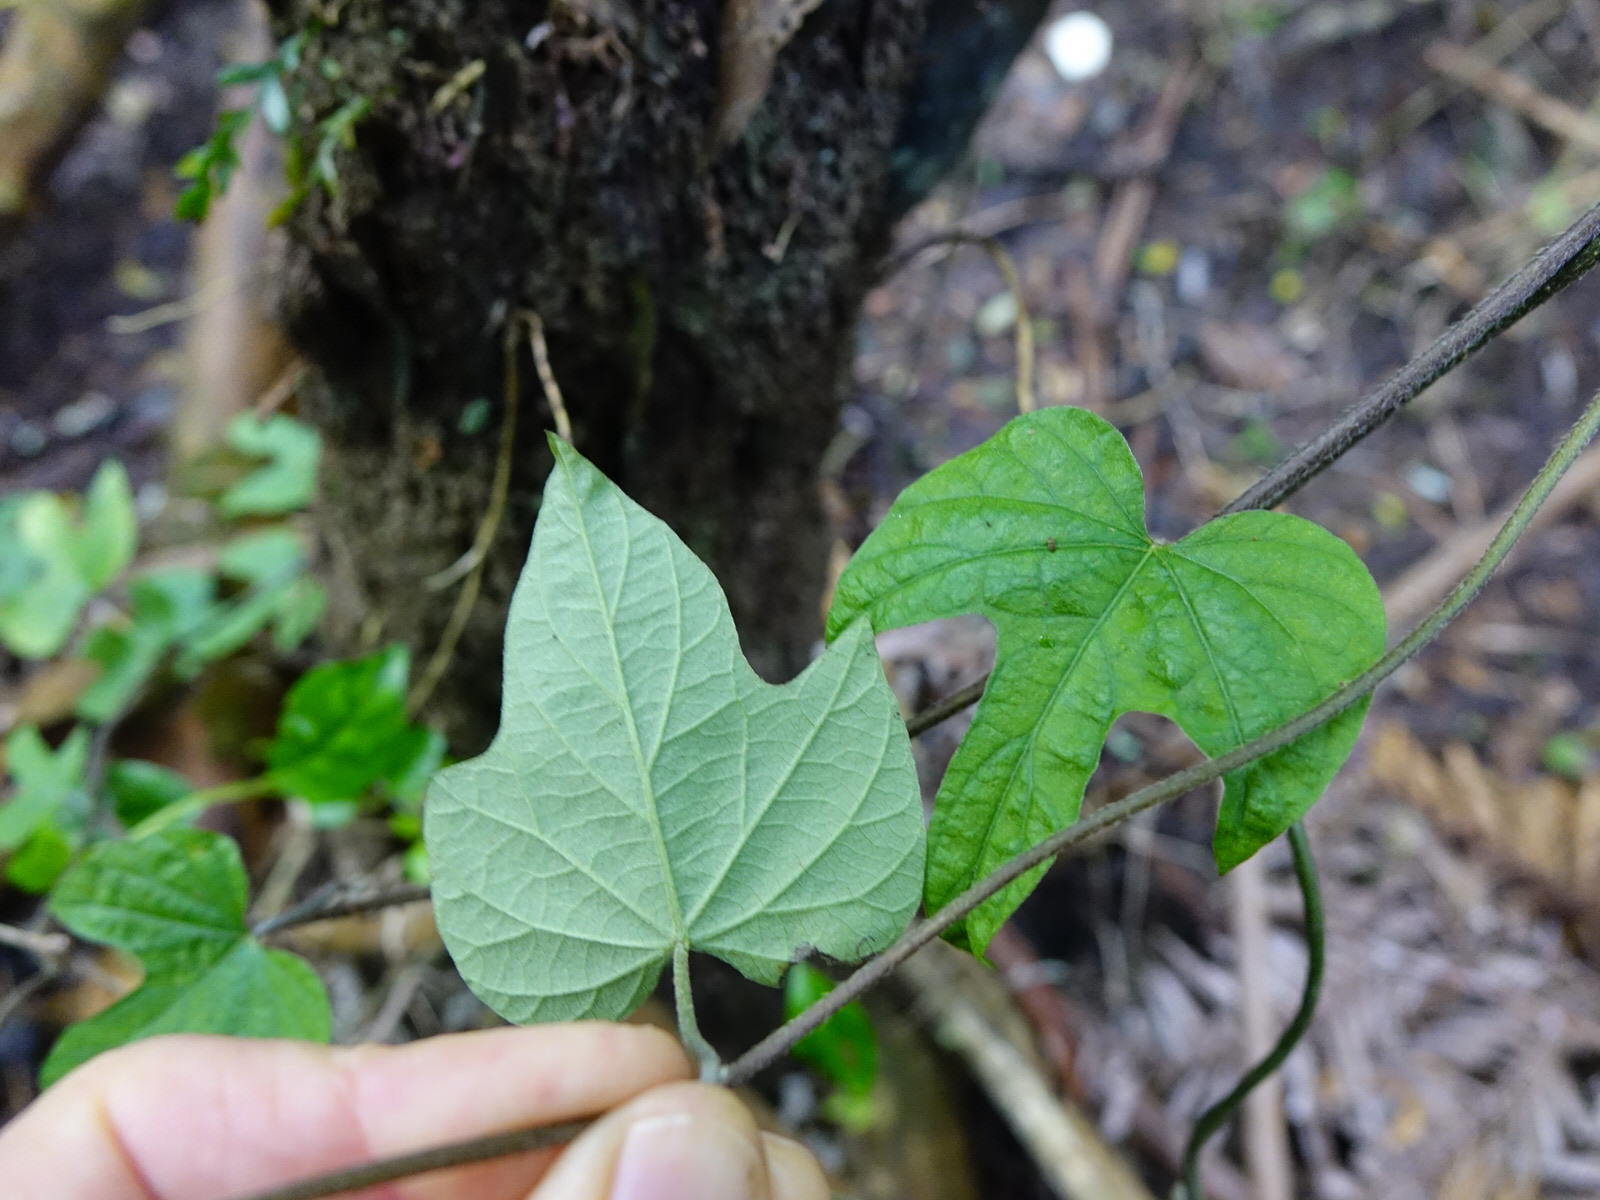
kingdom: Plantae
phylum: Tracheophyta
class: Magnoliopsida
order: Solanales
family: Convolvulaceae
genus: Ipomoea
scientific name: Ipomoea indica
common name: Blue dawnflower
